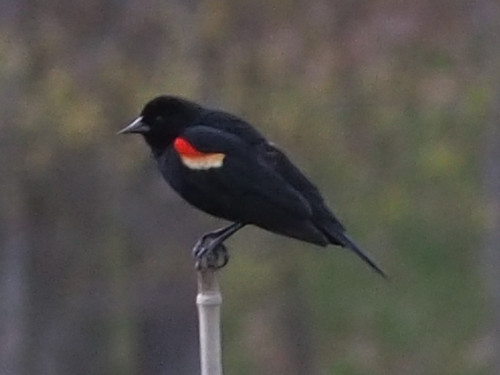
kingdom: Animalia
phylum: Chordata
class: Aves
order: Passeriformes
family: Icteridae
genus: Agelaius
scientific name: Agelaius phoeniceus
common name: Red-winged blackbird
